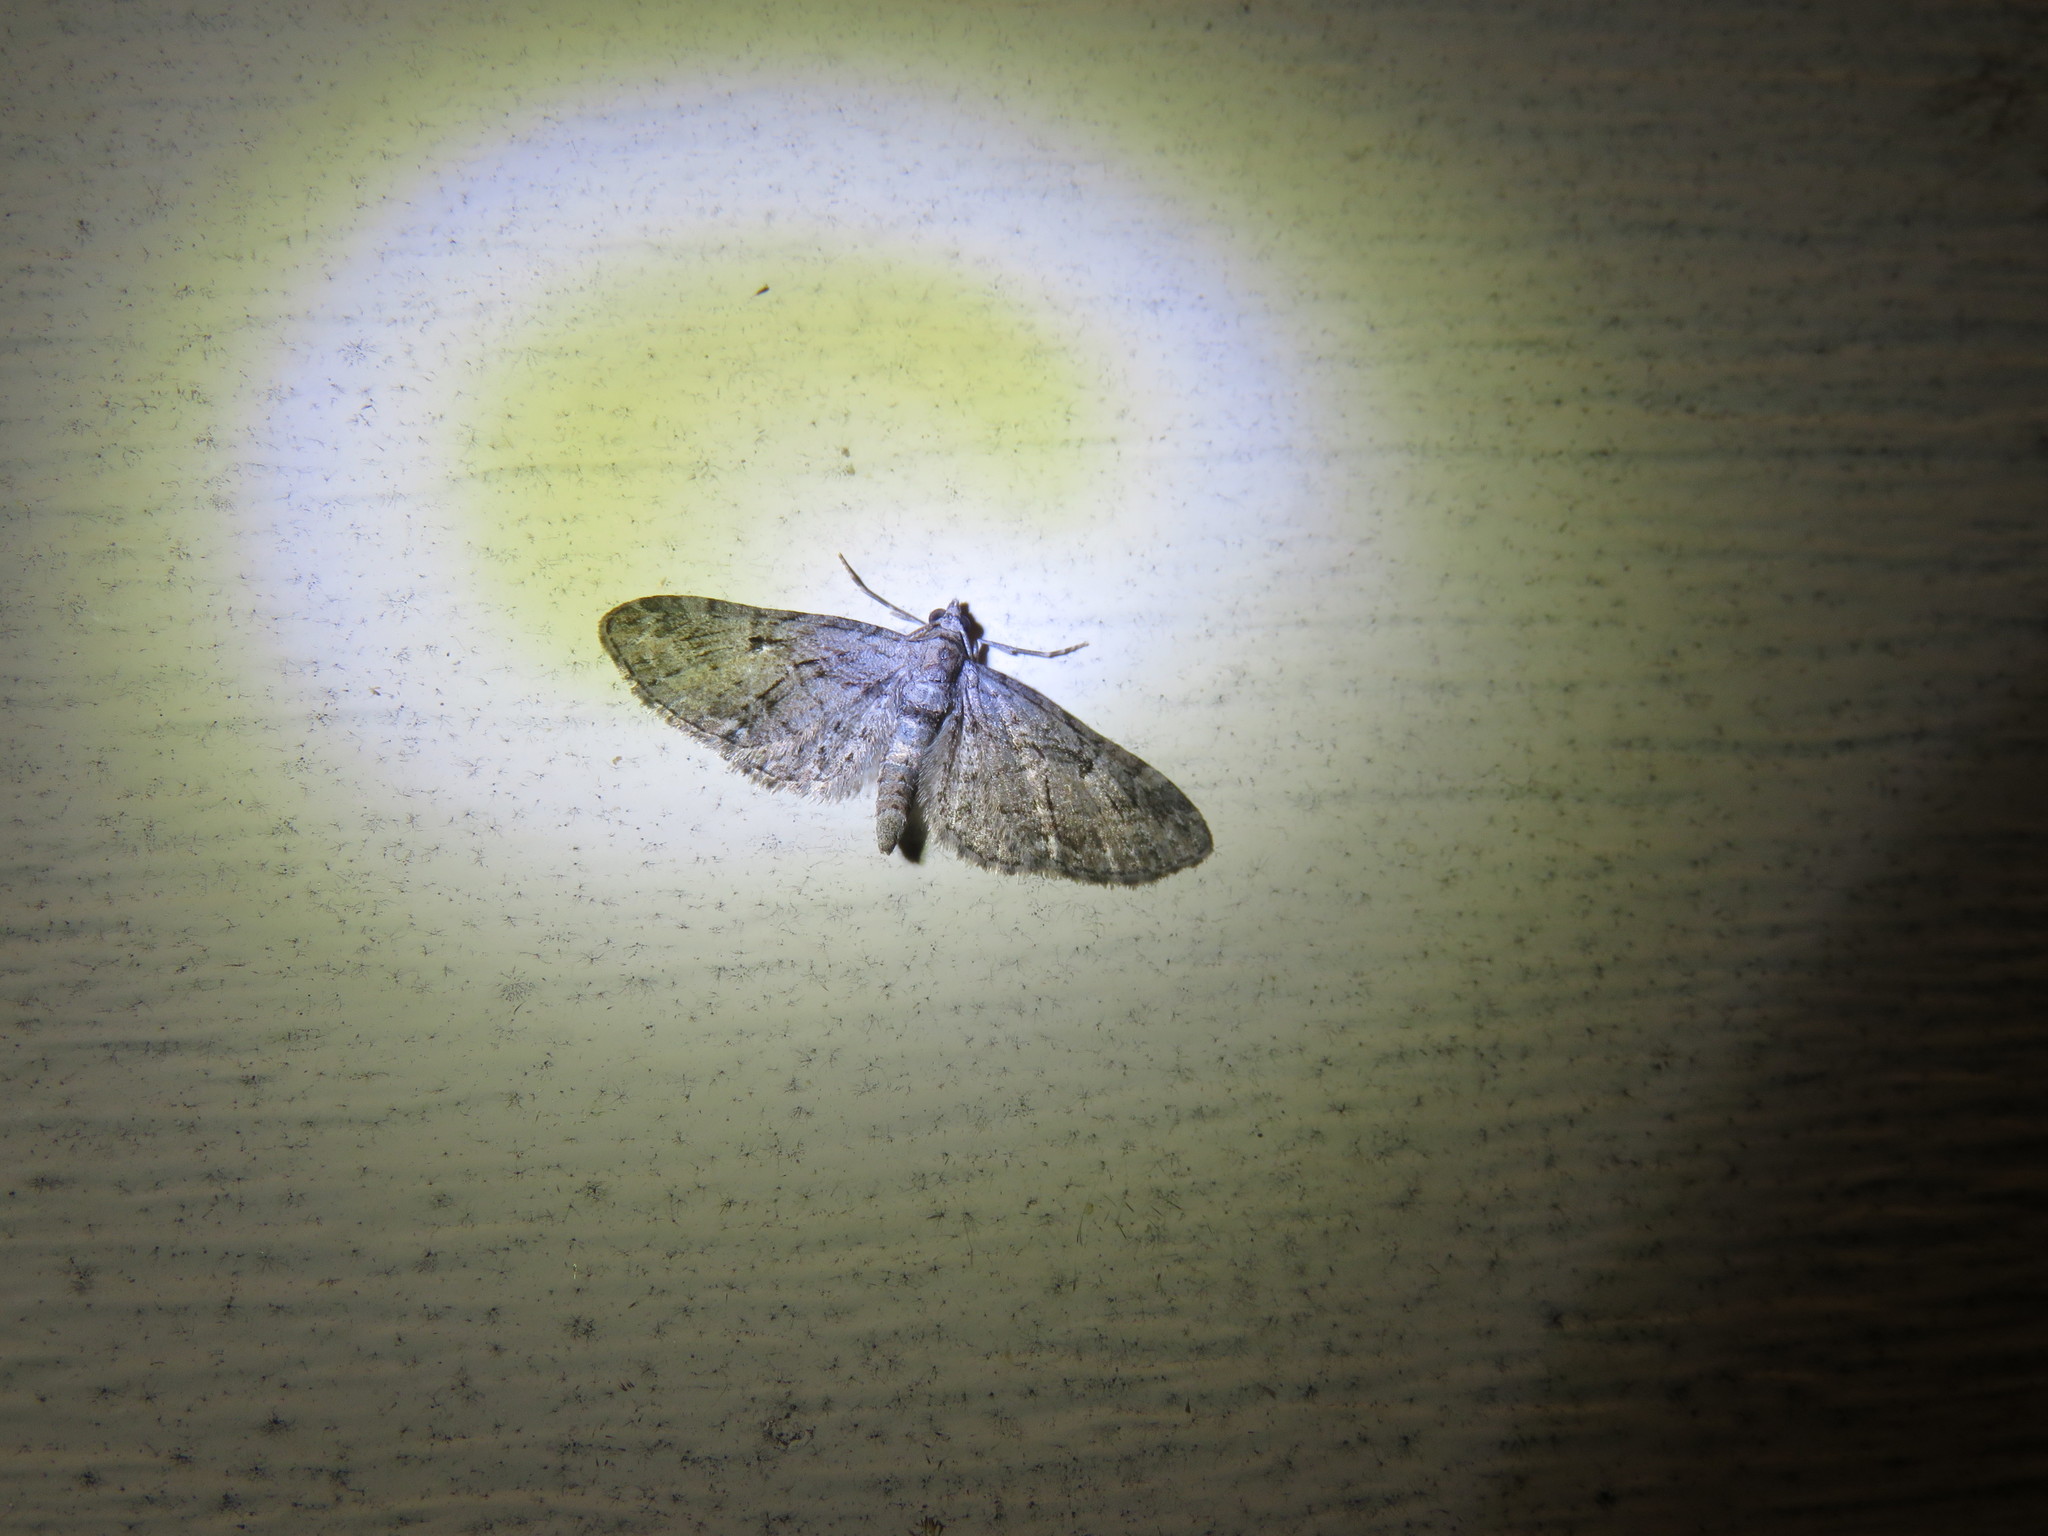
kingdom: Animalia
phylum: Arthropoda
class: Insecta
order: Lepidoptera
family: Geometridae
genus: Eupithecia
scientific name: Eupithecia interruptofasciata
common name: Juniper looper moth
